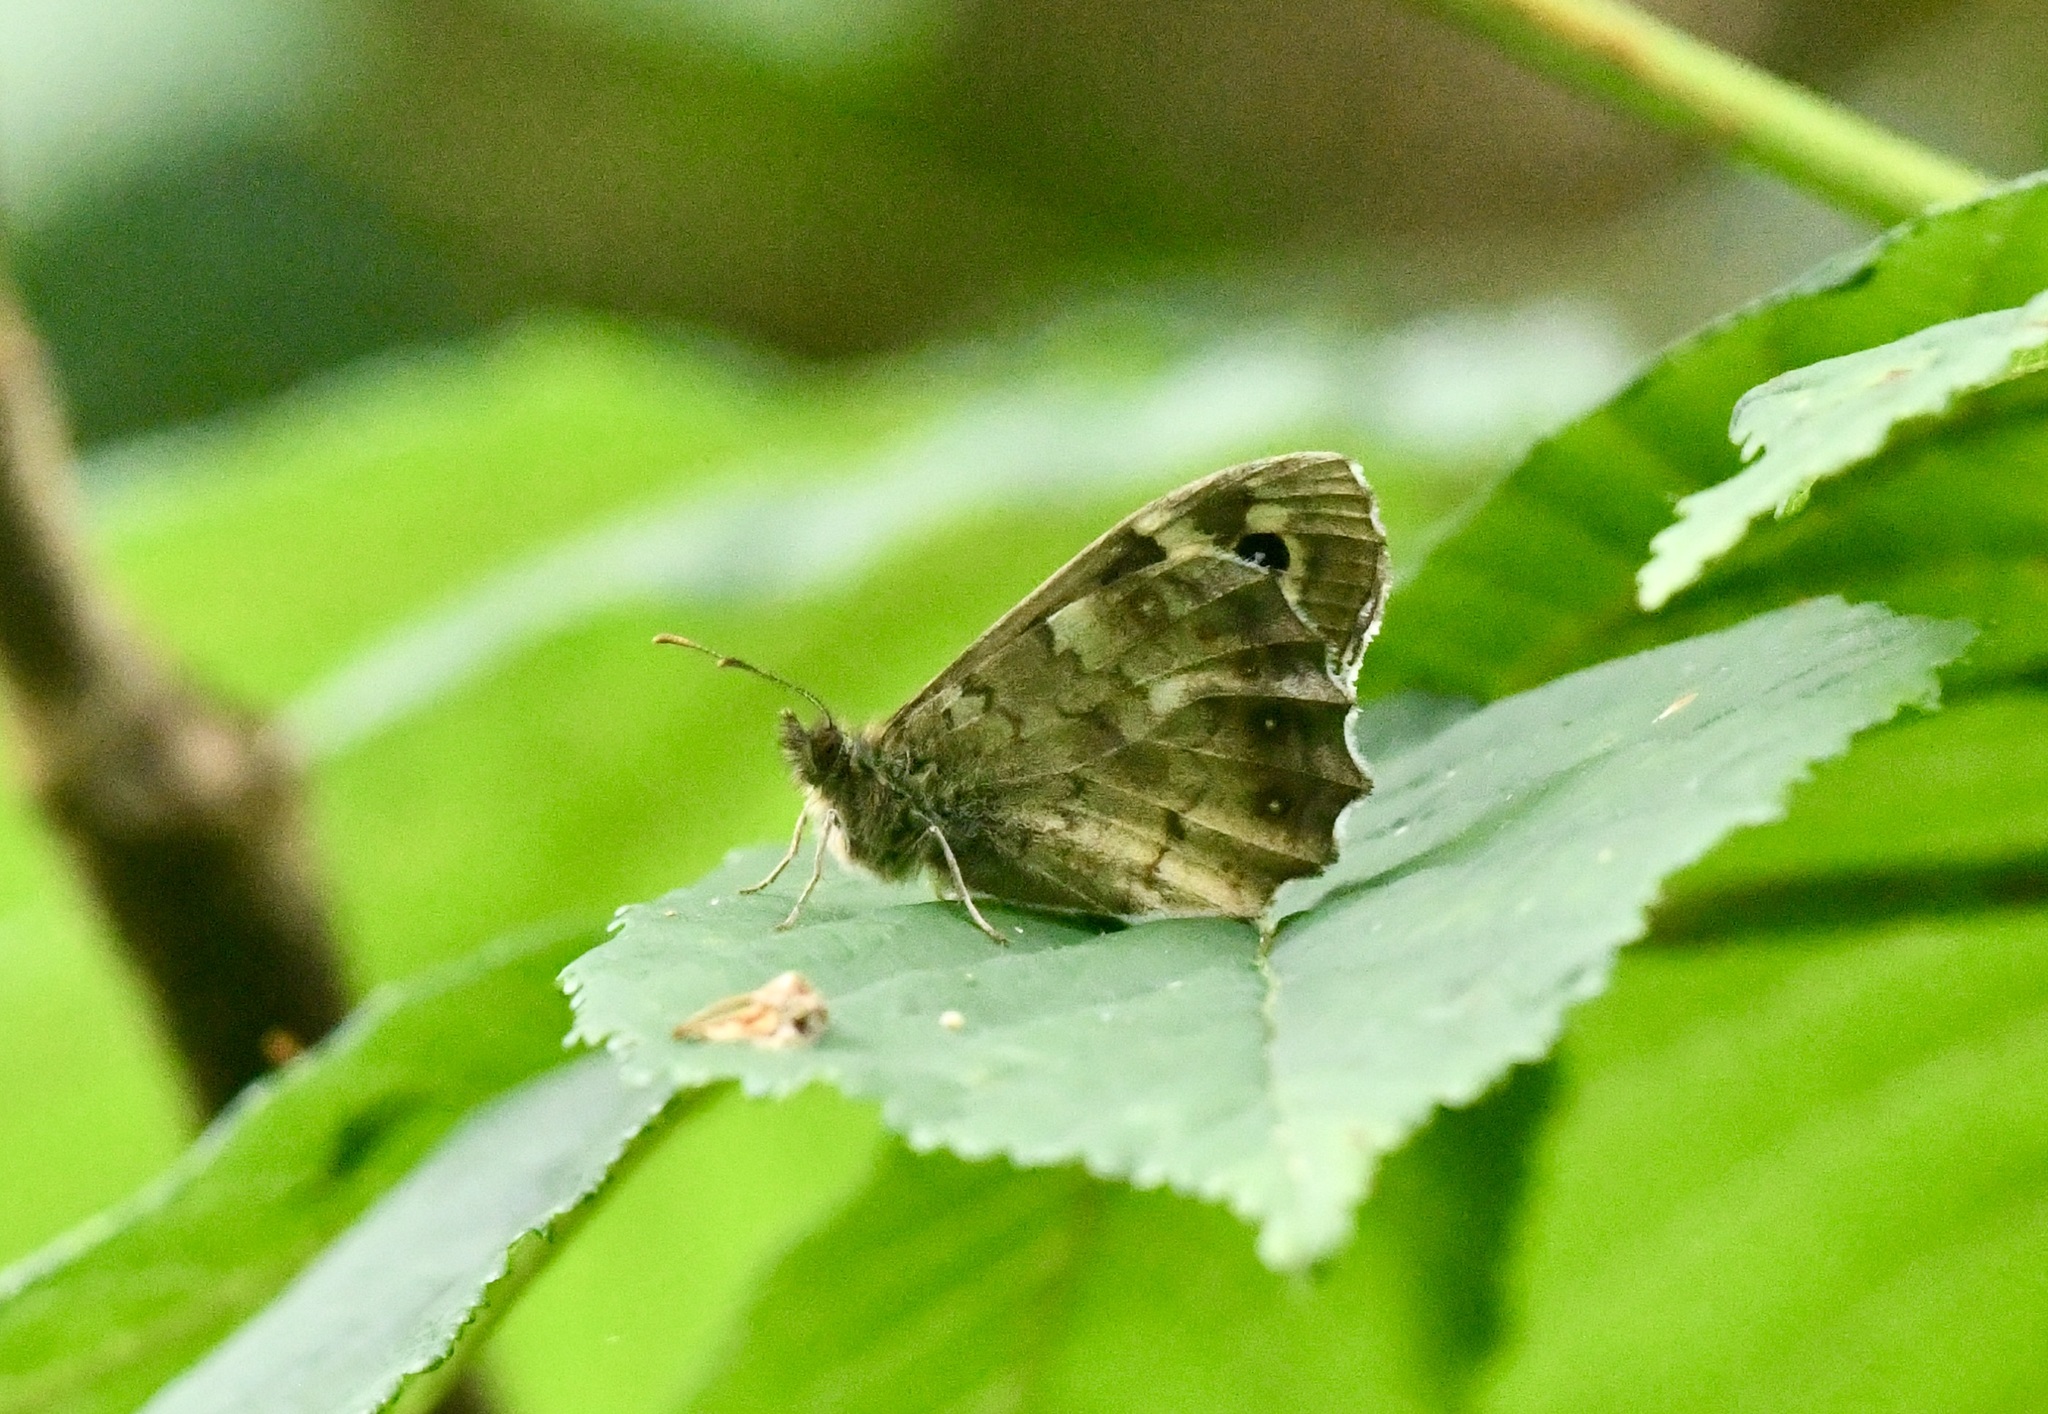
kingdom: Animalia
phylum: Arthropoda
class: Insecta
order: Lepidoptera
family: Nymphalidae
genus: Pararge
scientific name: Pararge aegeria
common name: Speckled wood
